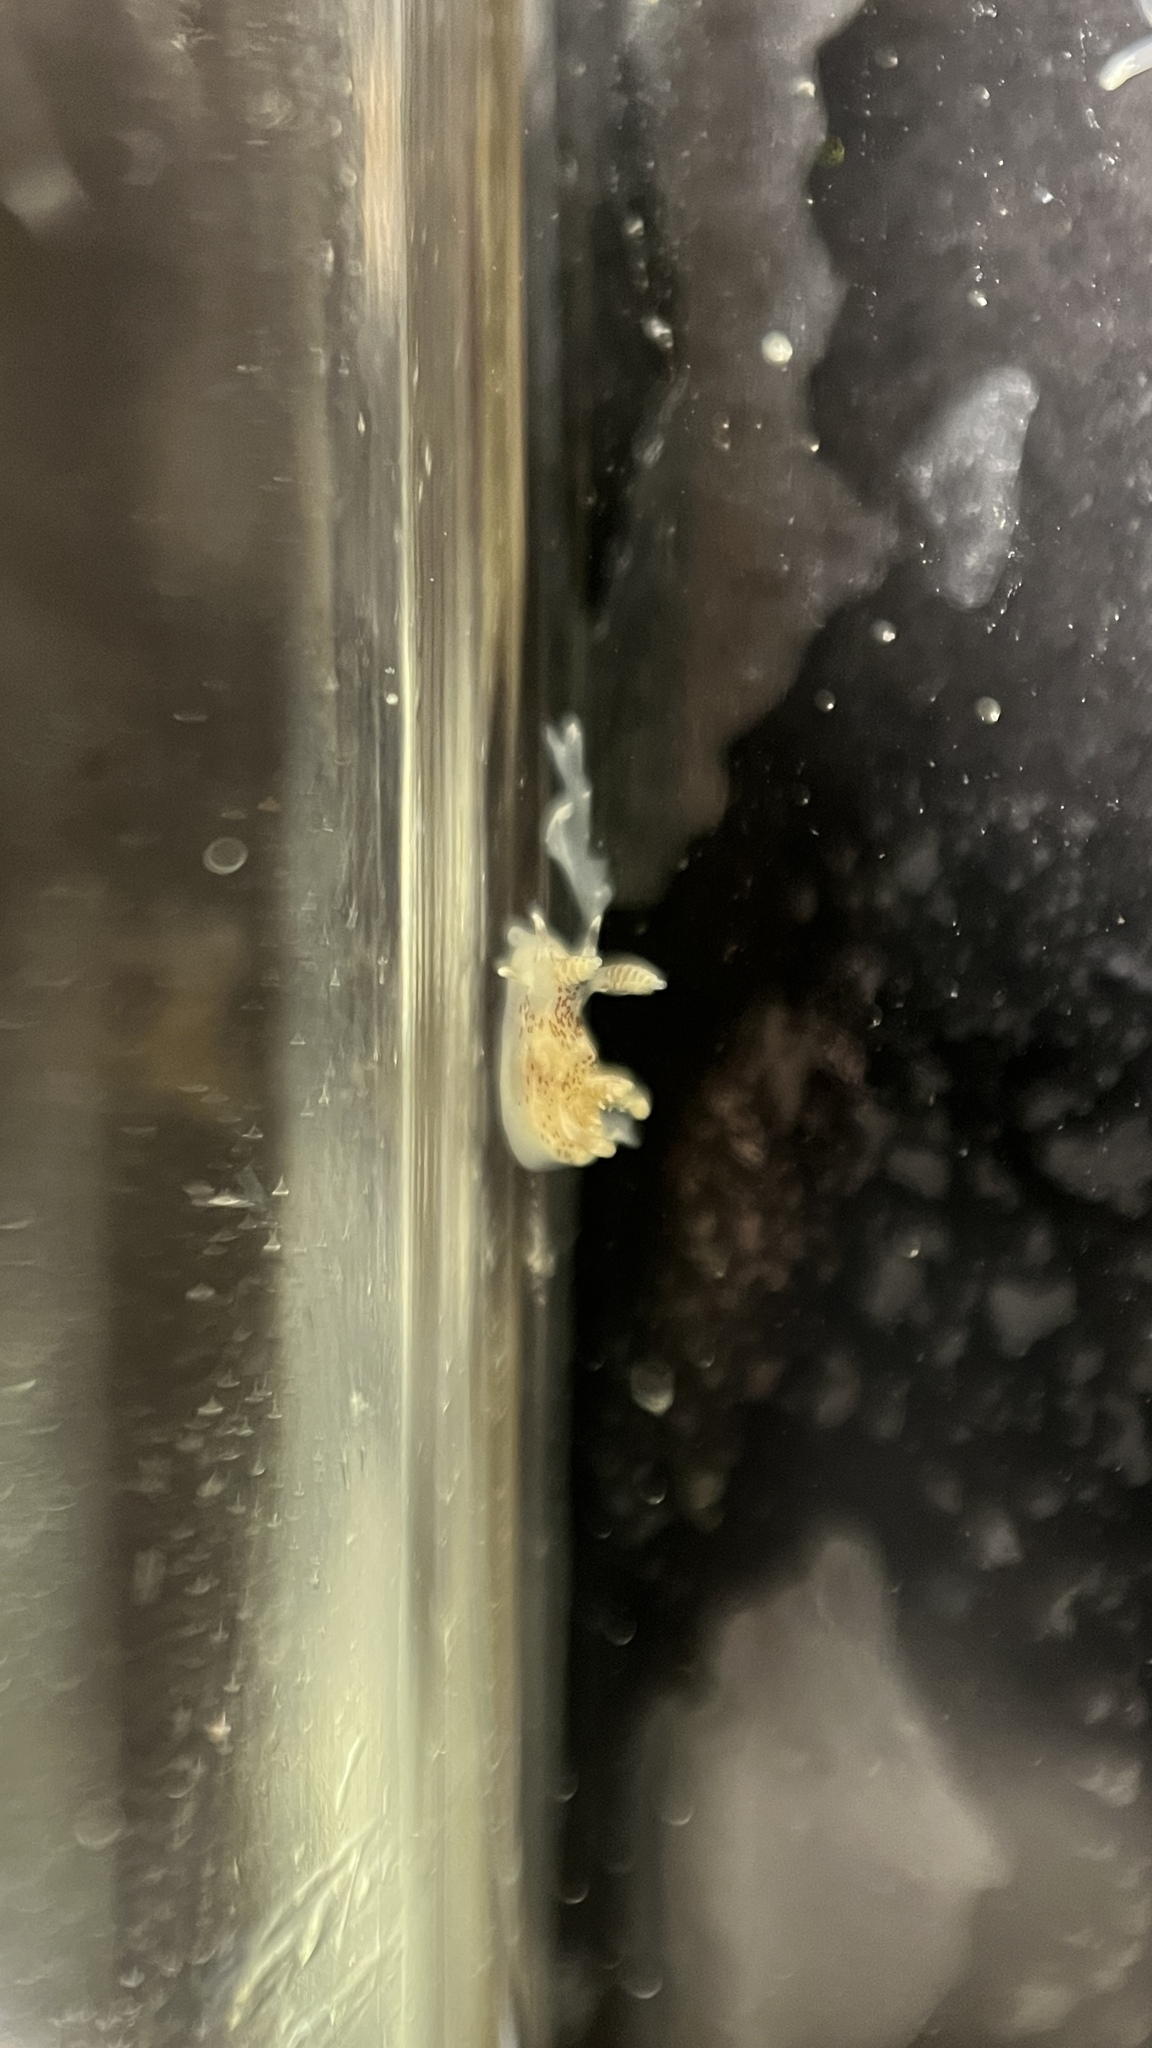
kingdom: Animalia
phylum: Mollusca
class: Gastropoda
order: Nudibranchia
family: Goniodorididae
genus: Ancula
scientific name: Ancula mapae
